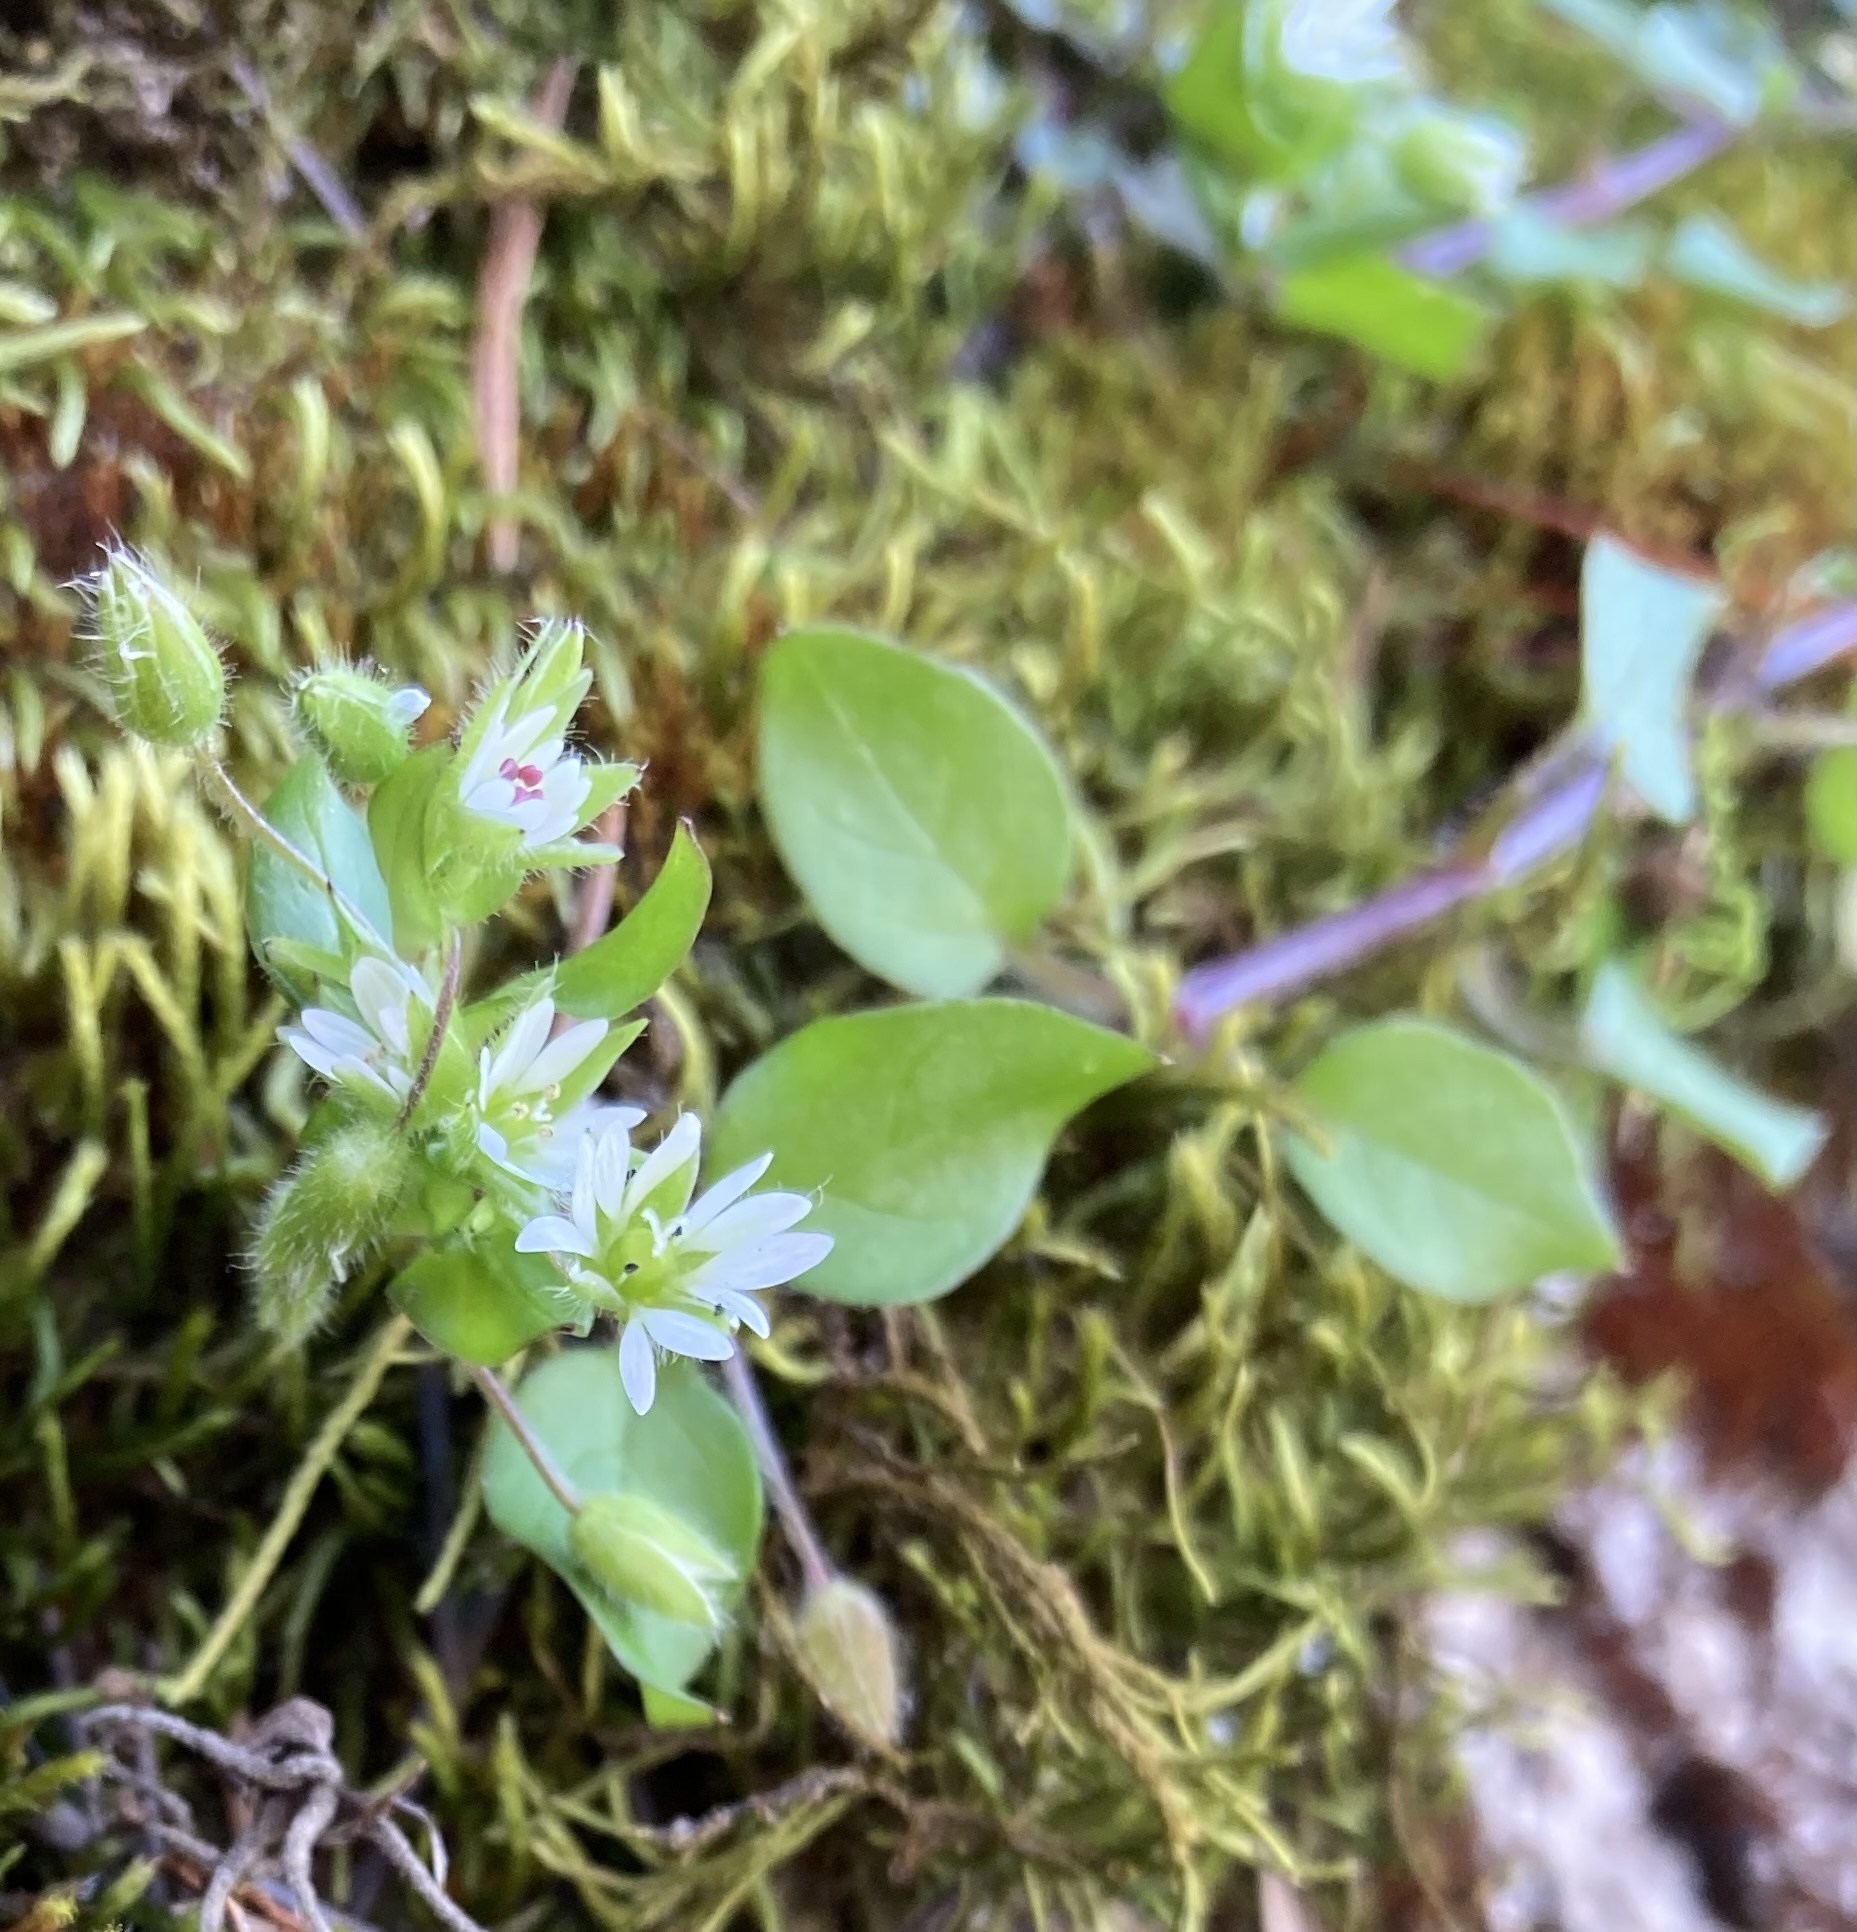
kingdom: Plantae
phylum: Tracheophyta
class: Magnoliopsida
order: Caryophyllales
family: Caryophyllaceae
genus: Stellaria
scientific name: Stellaria media
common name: Common chickweed
